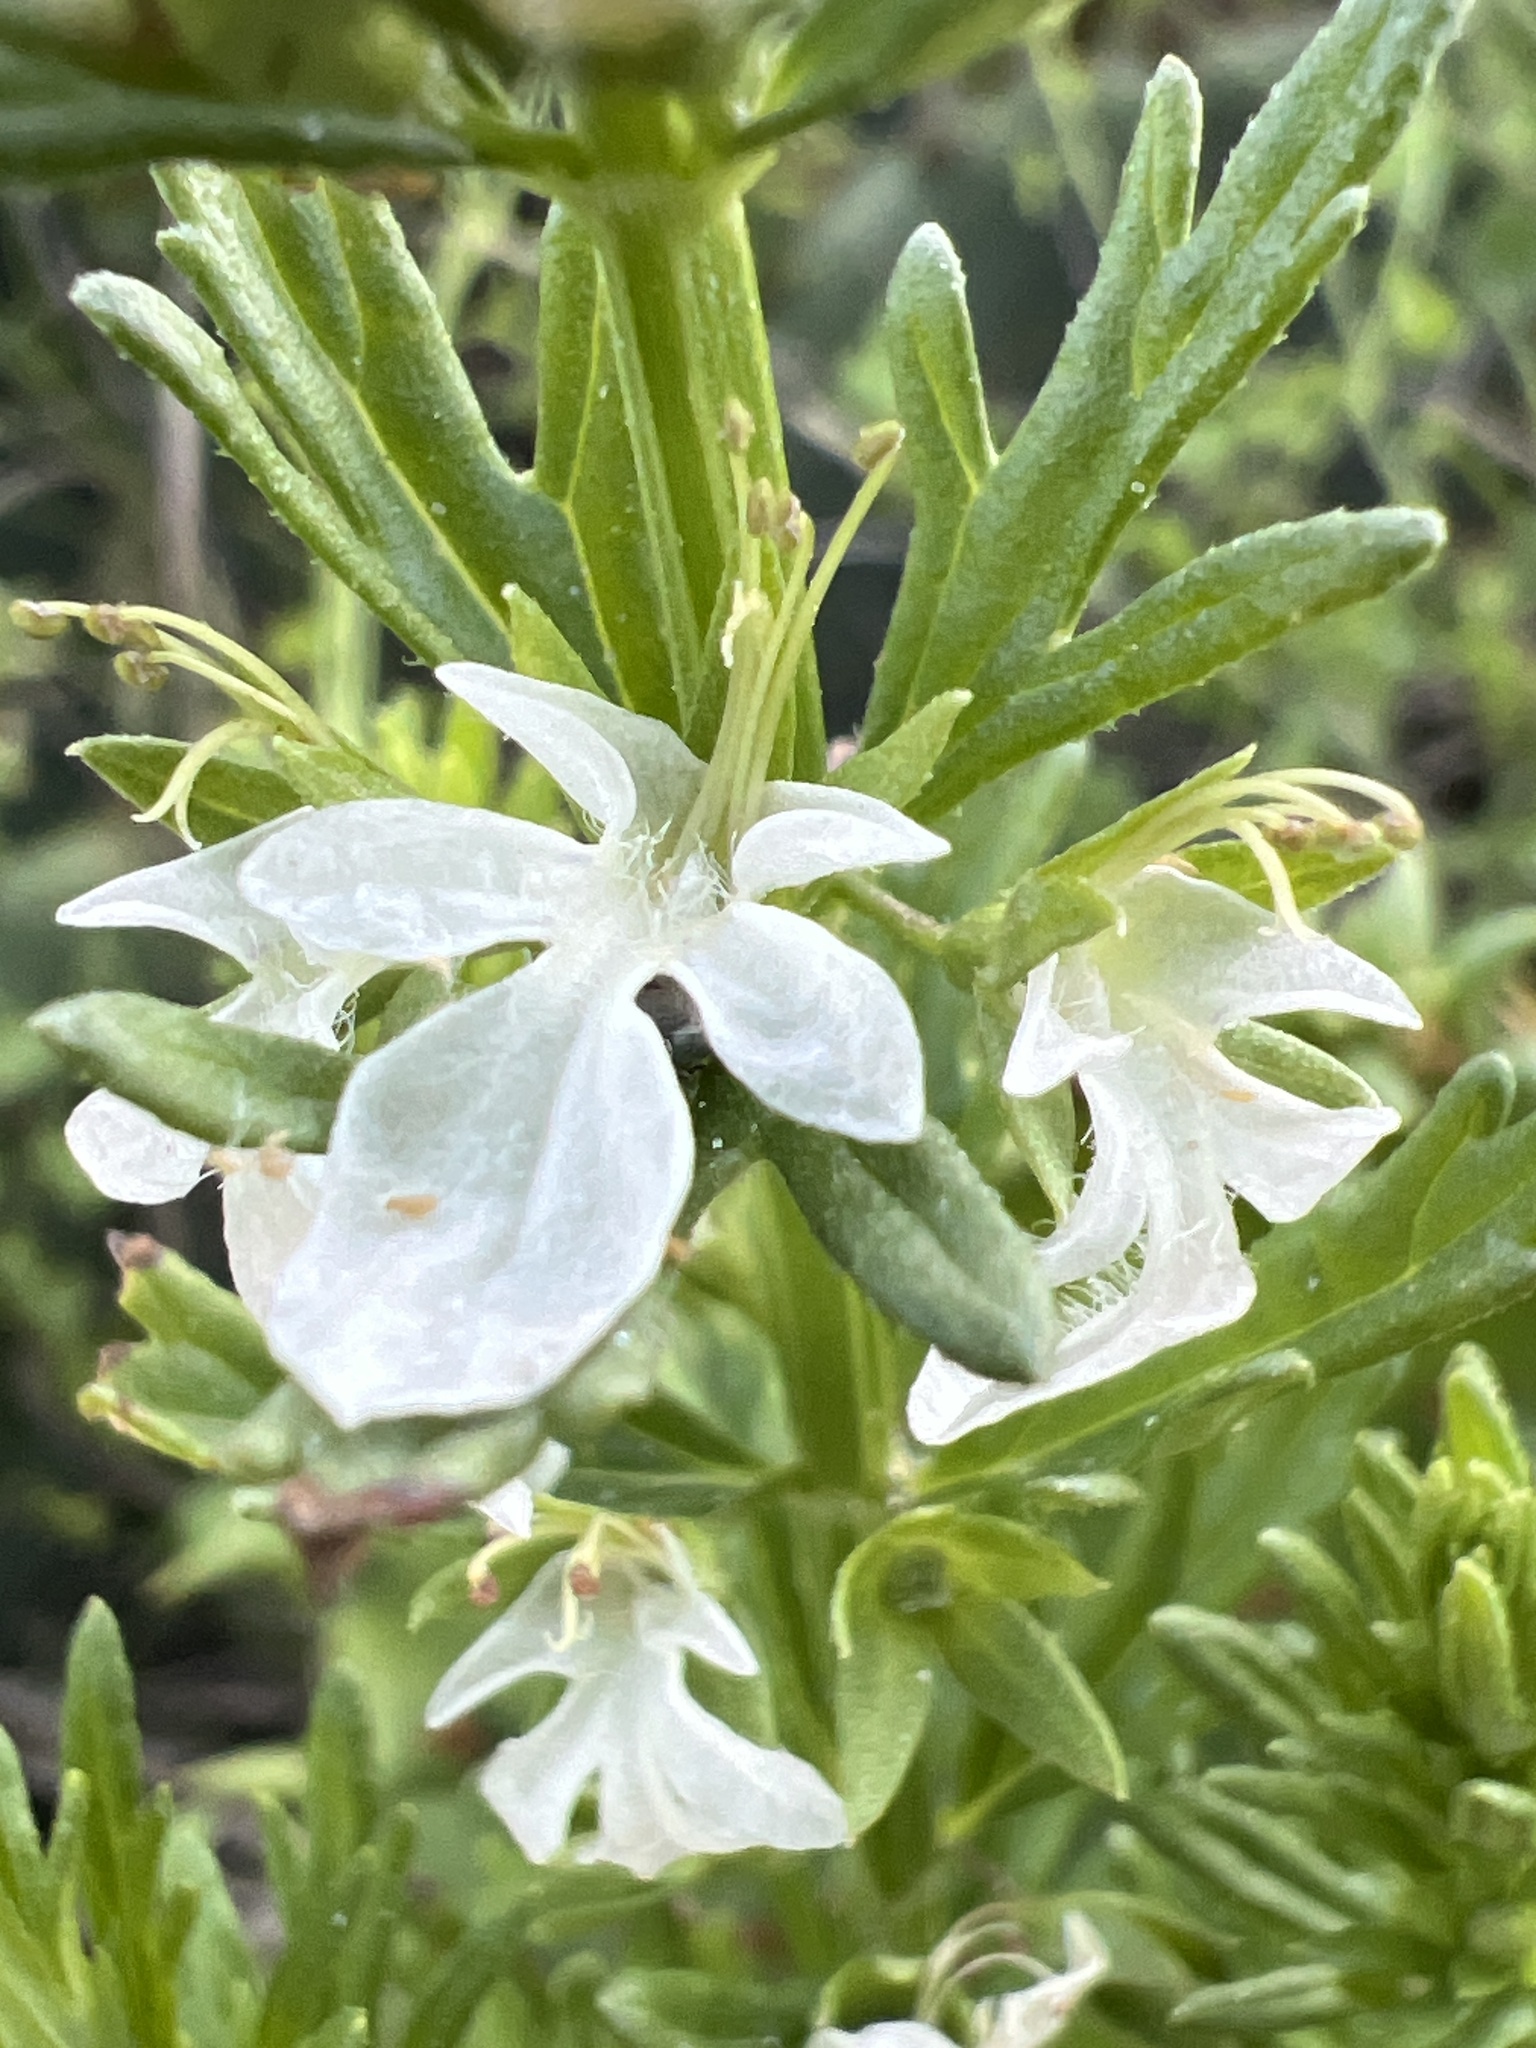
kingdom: Plantae
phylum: Tracheophyta
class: Magnoliopsida
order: Lamiales
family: Lamiaceae
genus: Teucrium
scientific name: Teucrium cubense
